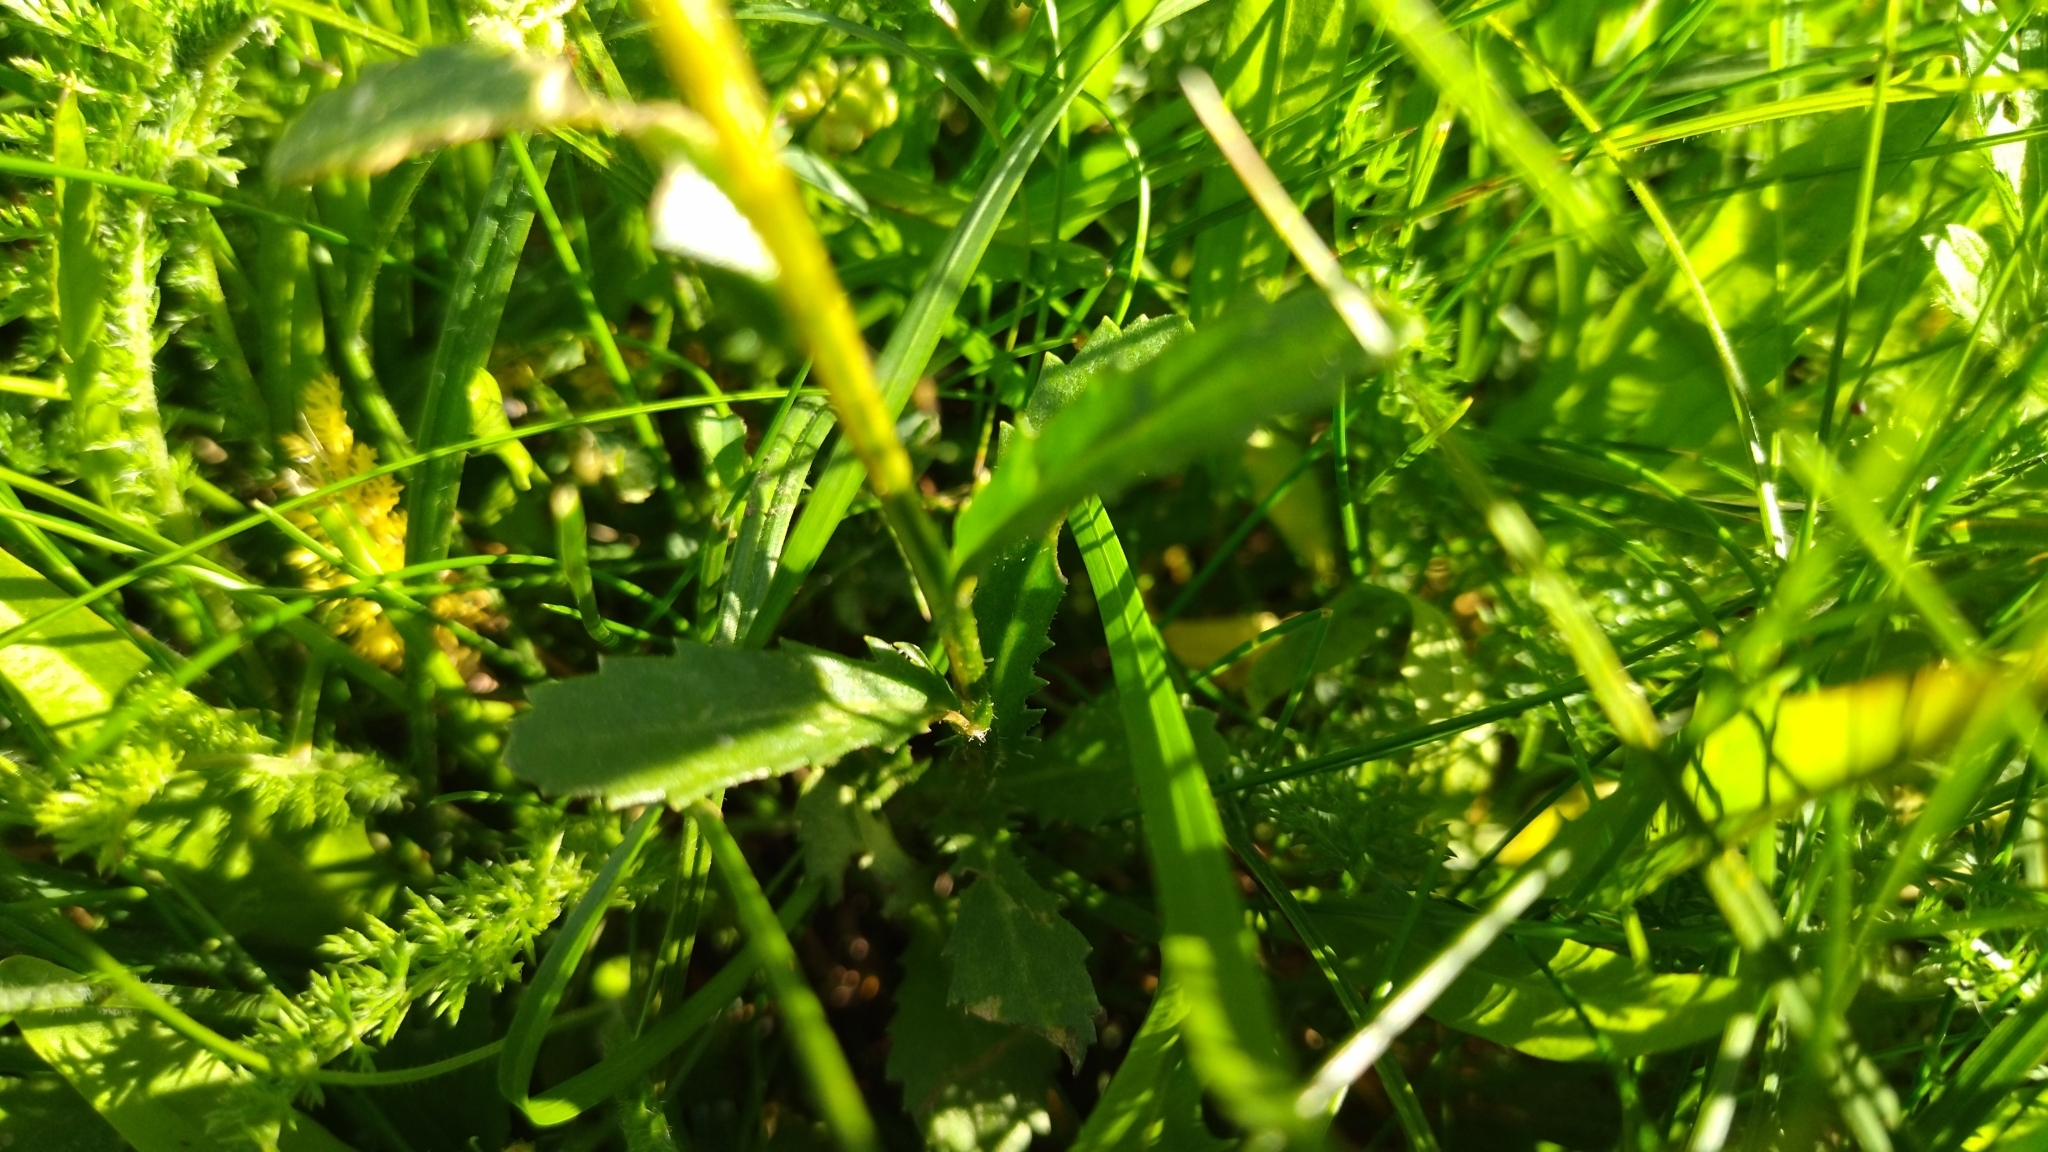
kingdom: Plantae
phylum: Tracheophyta
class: Magnoliopsida
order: Asterales
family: Asteraceae
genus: Leucanthemum
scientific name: Leucanthemum vulgare
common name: Oxeye daisy
